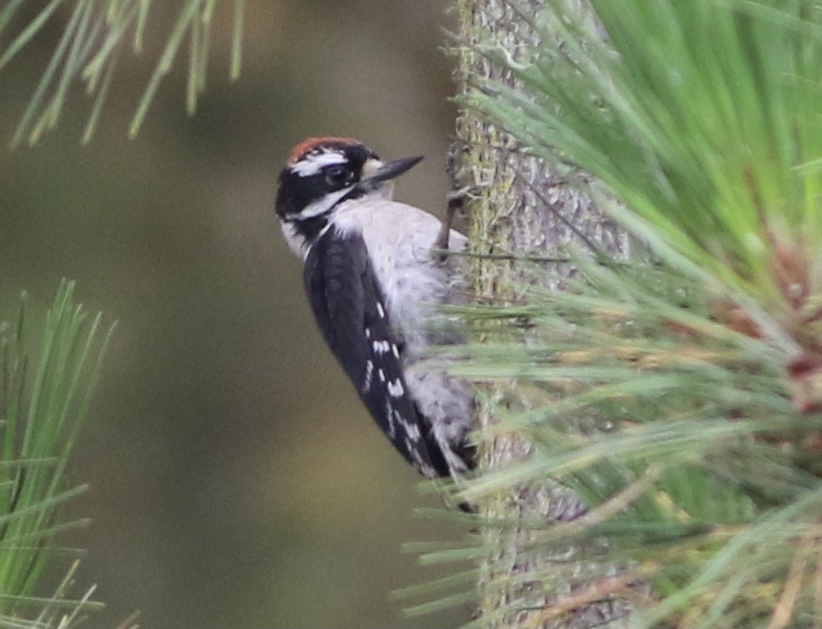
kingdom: Animalia
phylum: Chordata
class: Aves
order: Piciformes
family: Picidae
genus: Dryobates
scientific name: Dryobates pubescens
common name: Downy woodpecker
